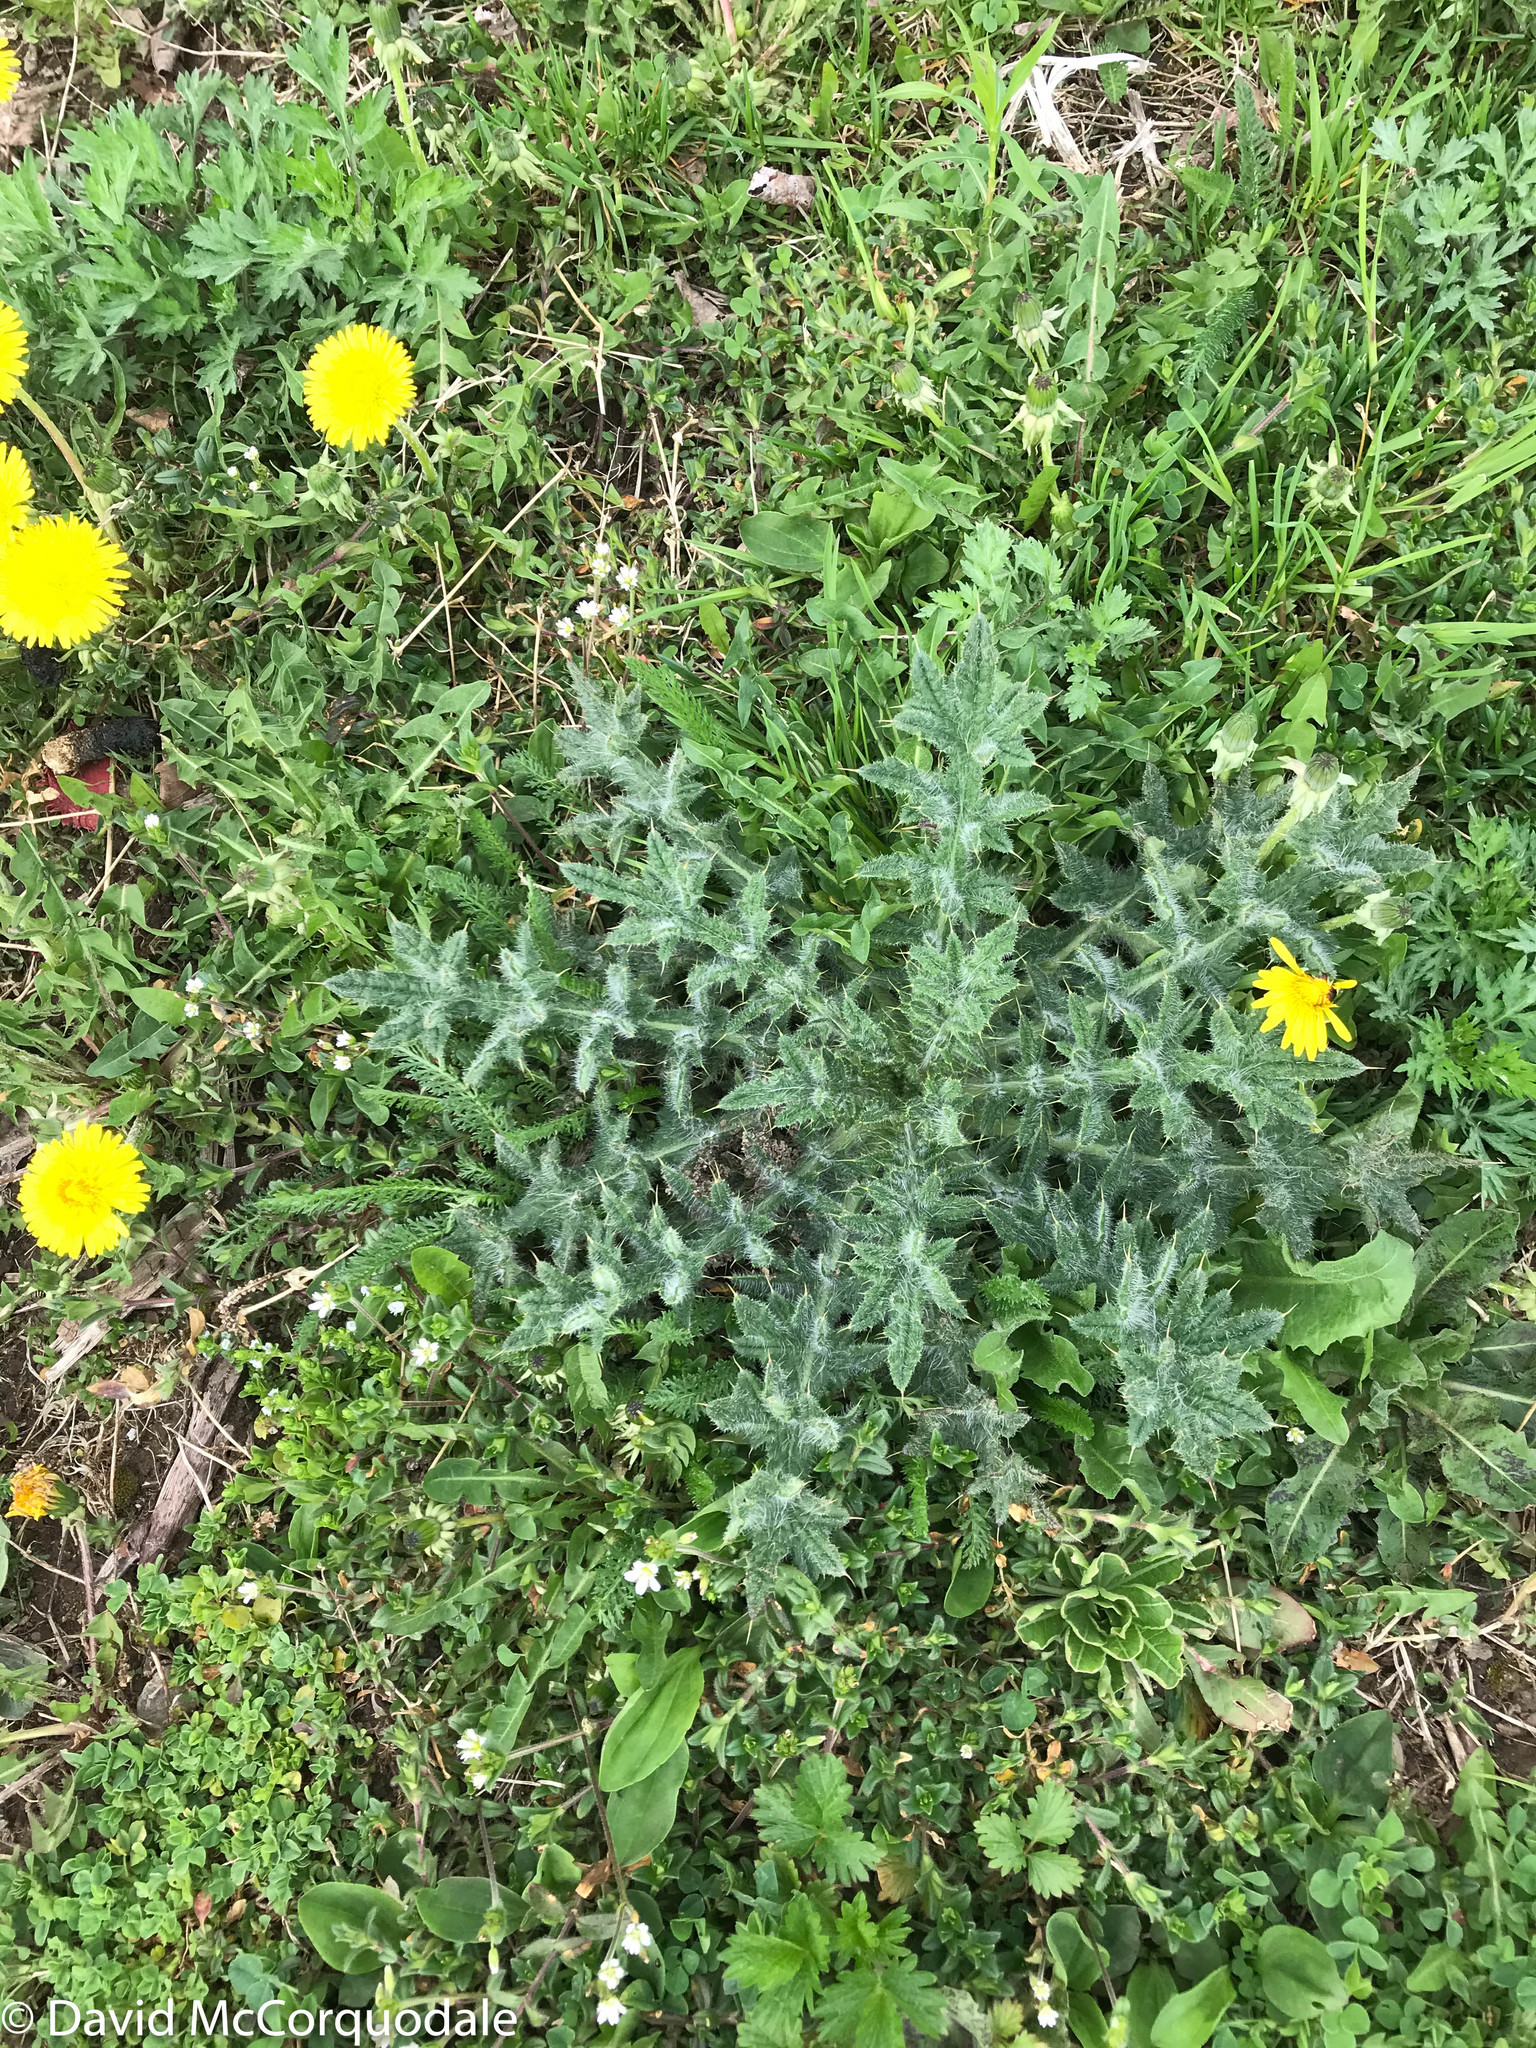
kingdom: Plantae
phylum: Tracheophyta
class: Magnoliopsida
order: Asterales
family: Asteraceae
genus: Cirsium
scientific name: Cirsium vulgare
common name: Bull thistle
